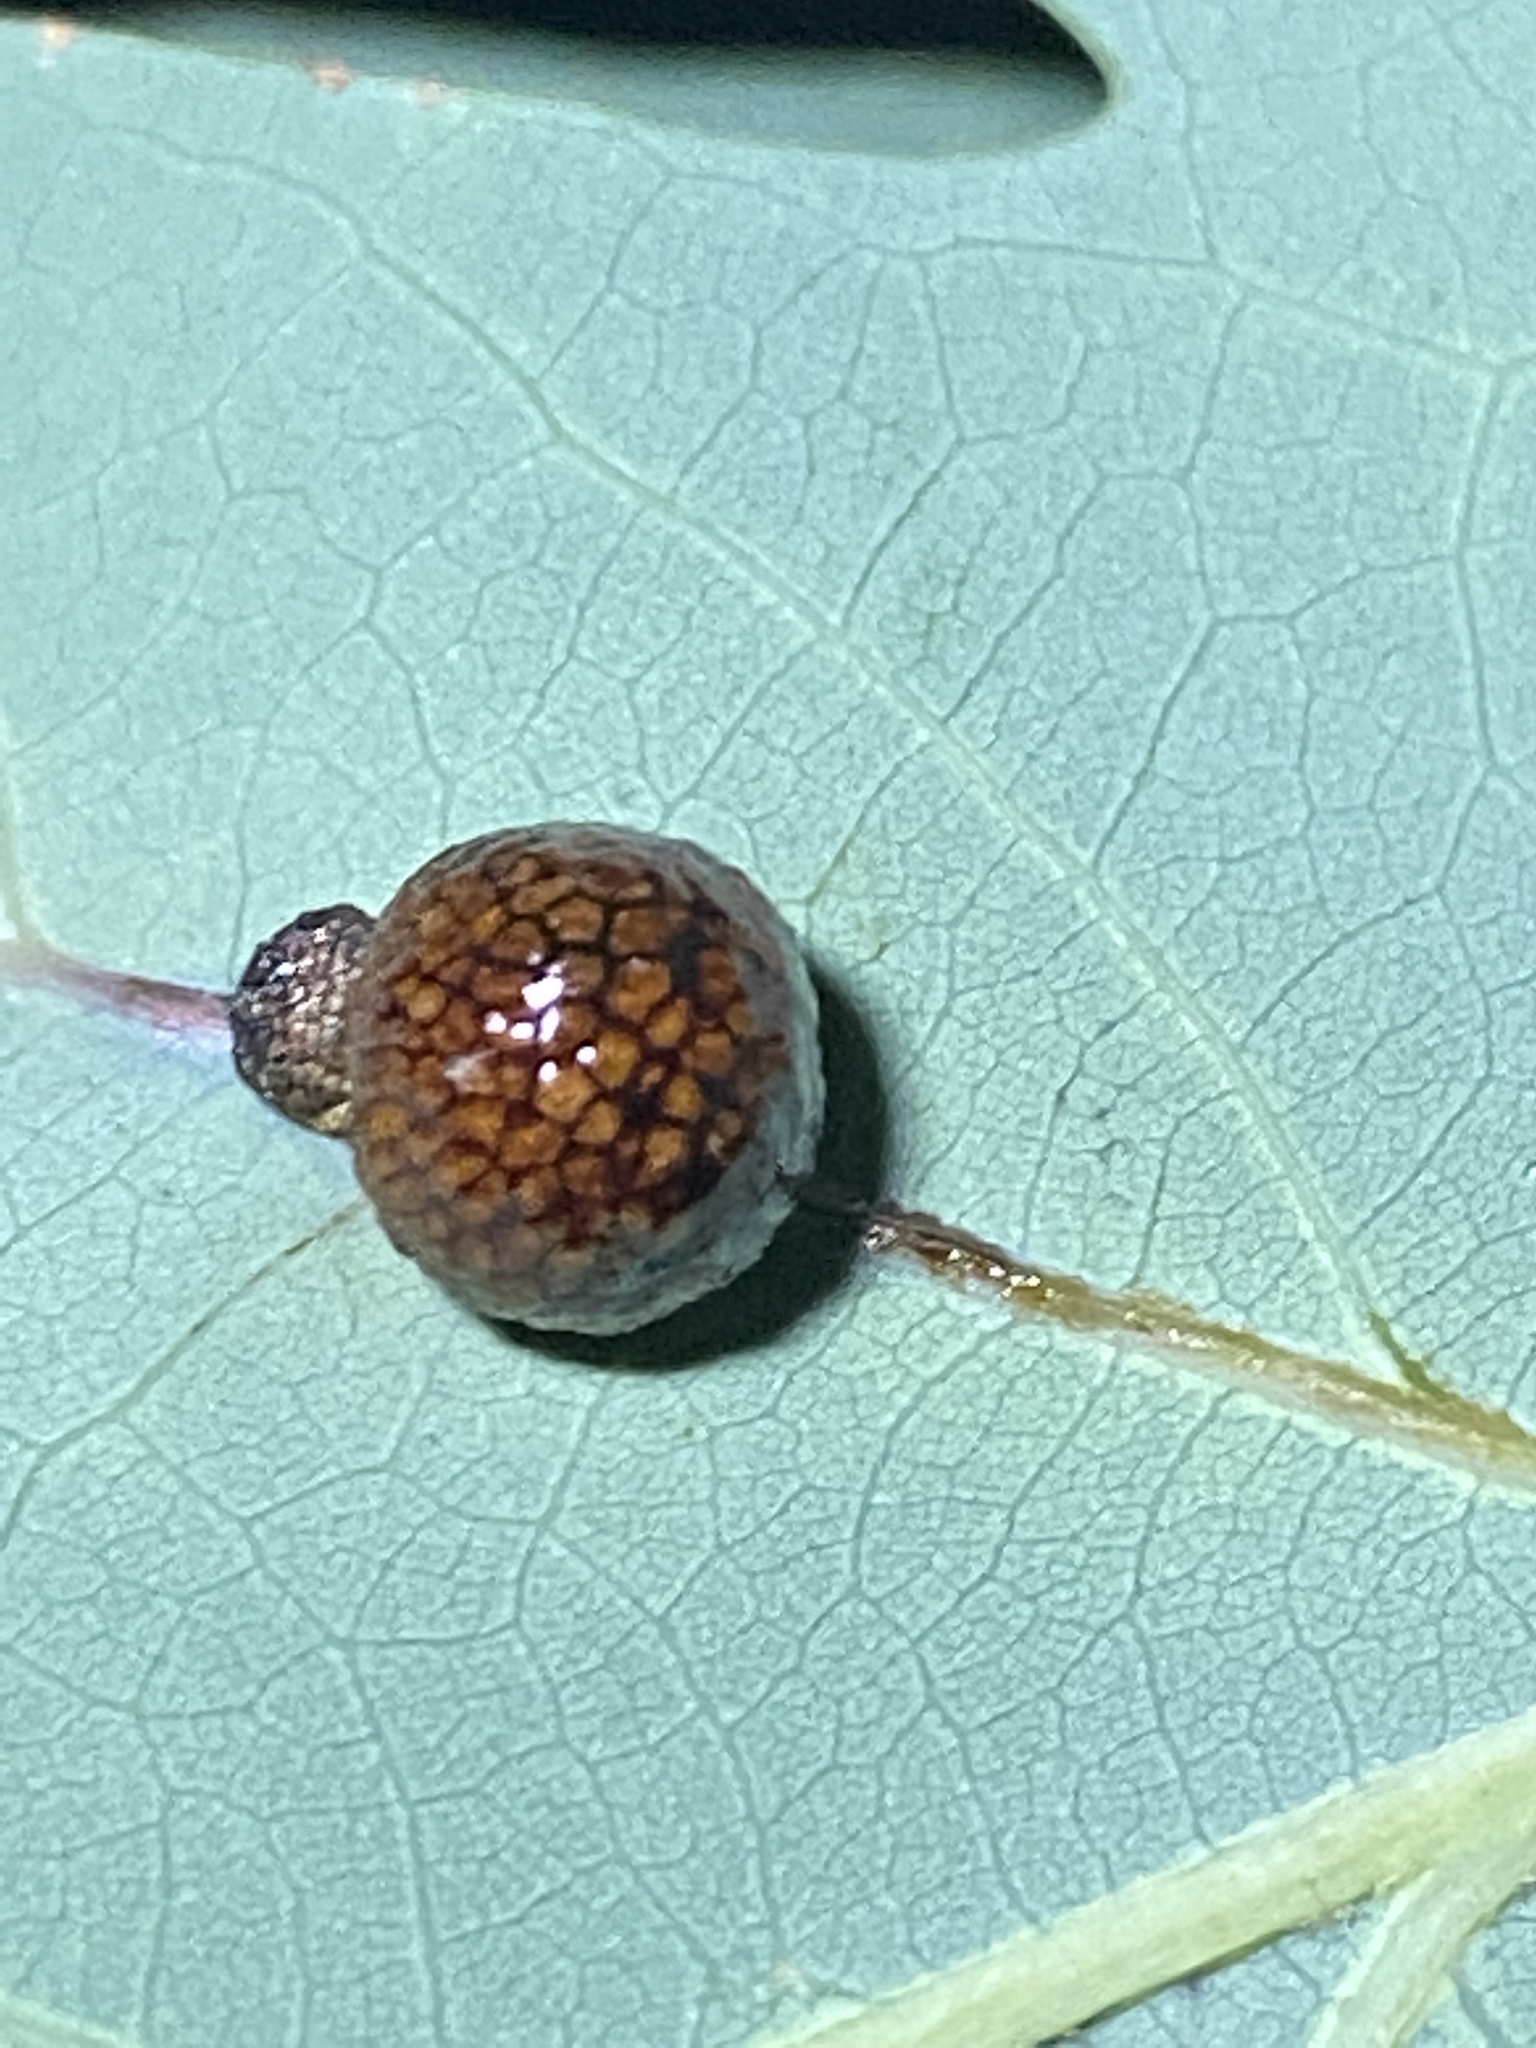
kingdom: Animalia
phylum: Arthropoda
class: Insecta
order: Hymenoptera
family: Cynipidae
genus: Acraspis
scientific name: Acraspis
